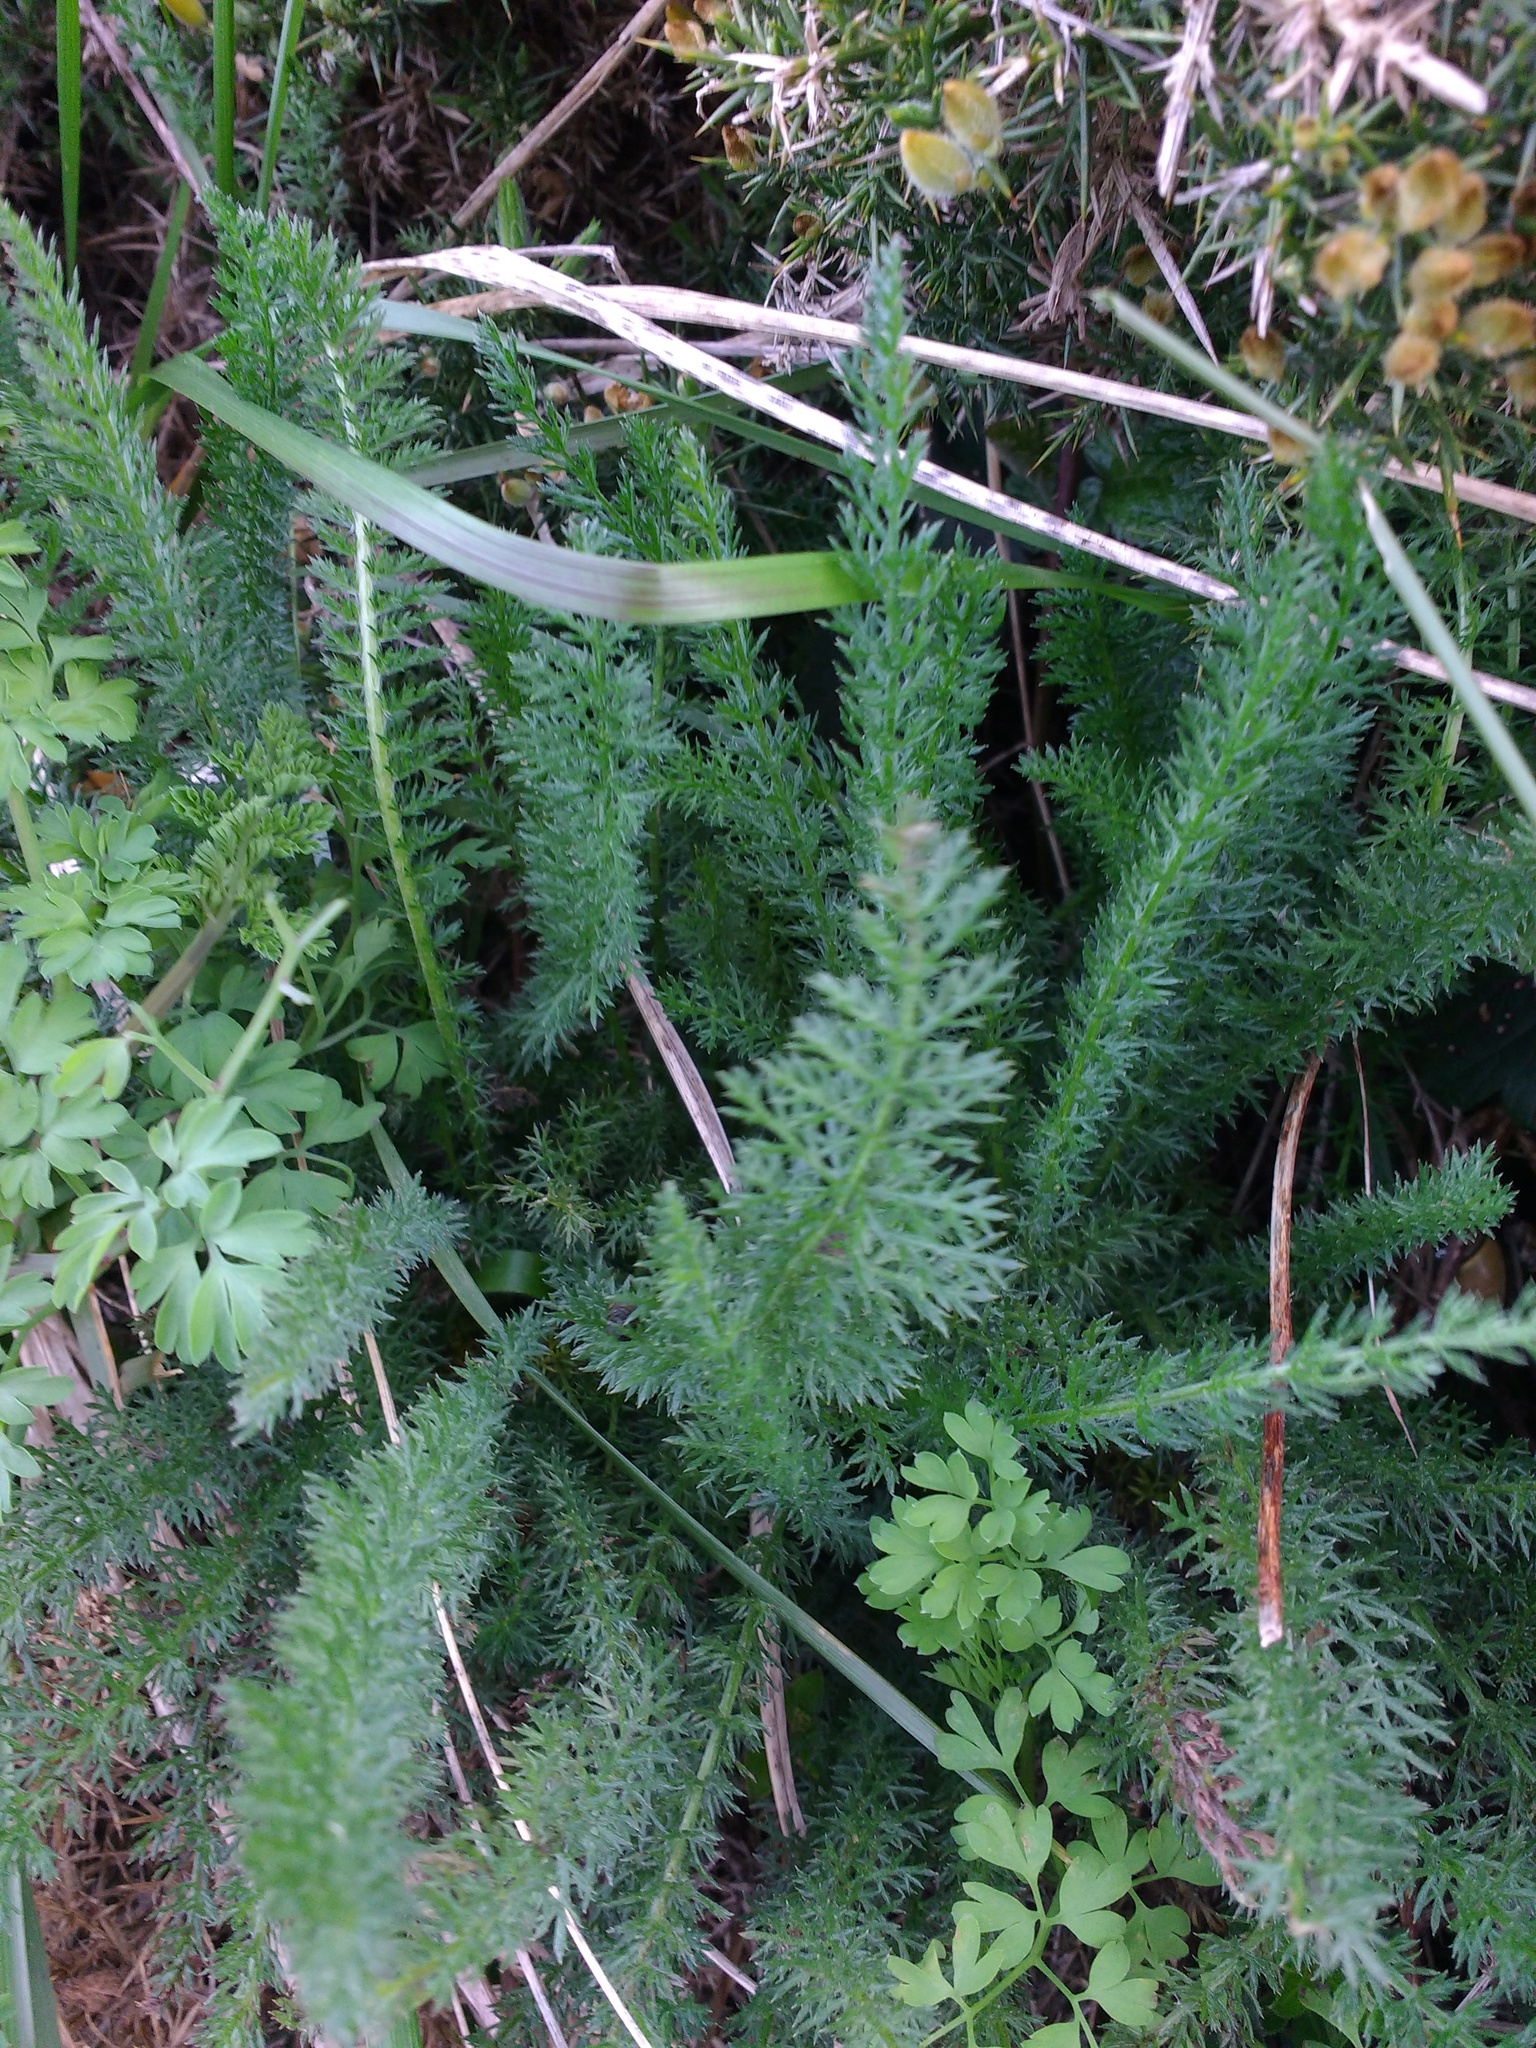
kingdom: Plantae
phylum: Tracheophyta
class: Magnoliopsida
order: Asterales
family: Asteraceae
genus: Achillea
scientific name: Achillea millefolium
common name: Yarrow
